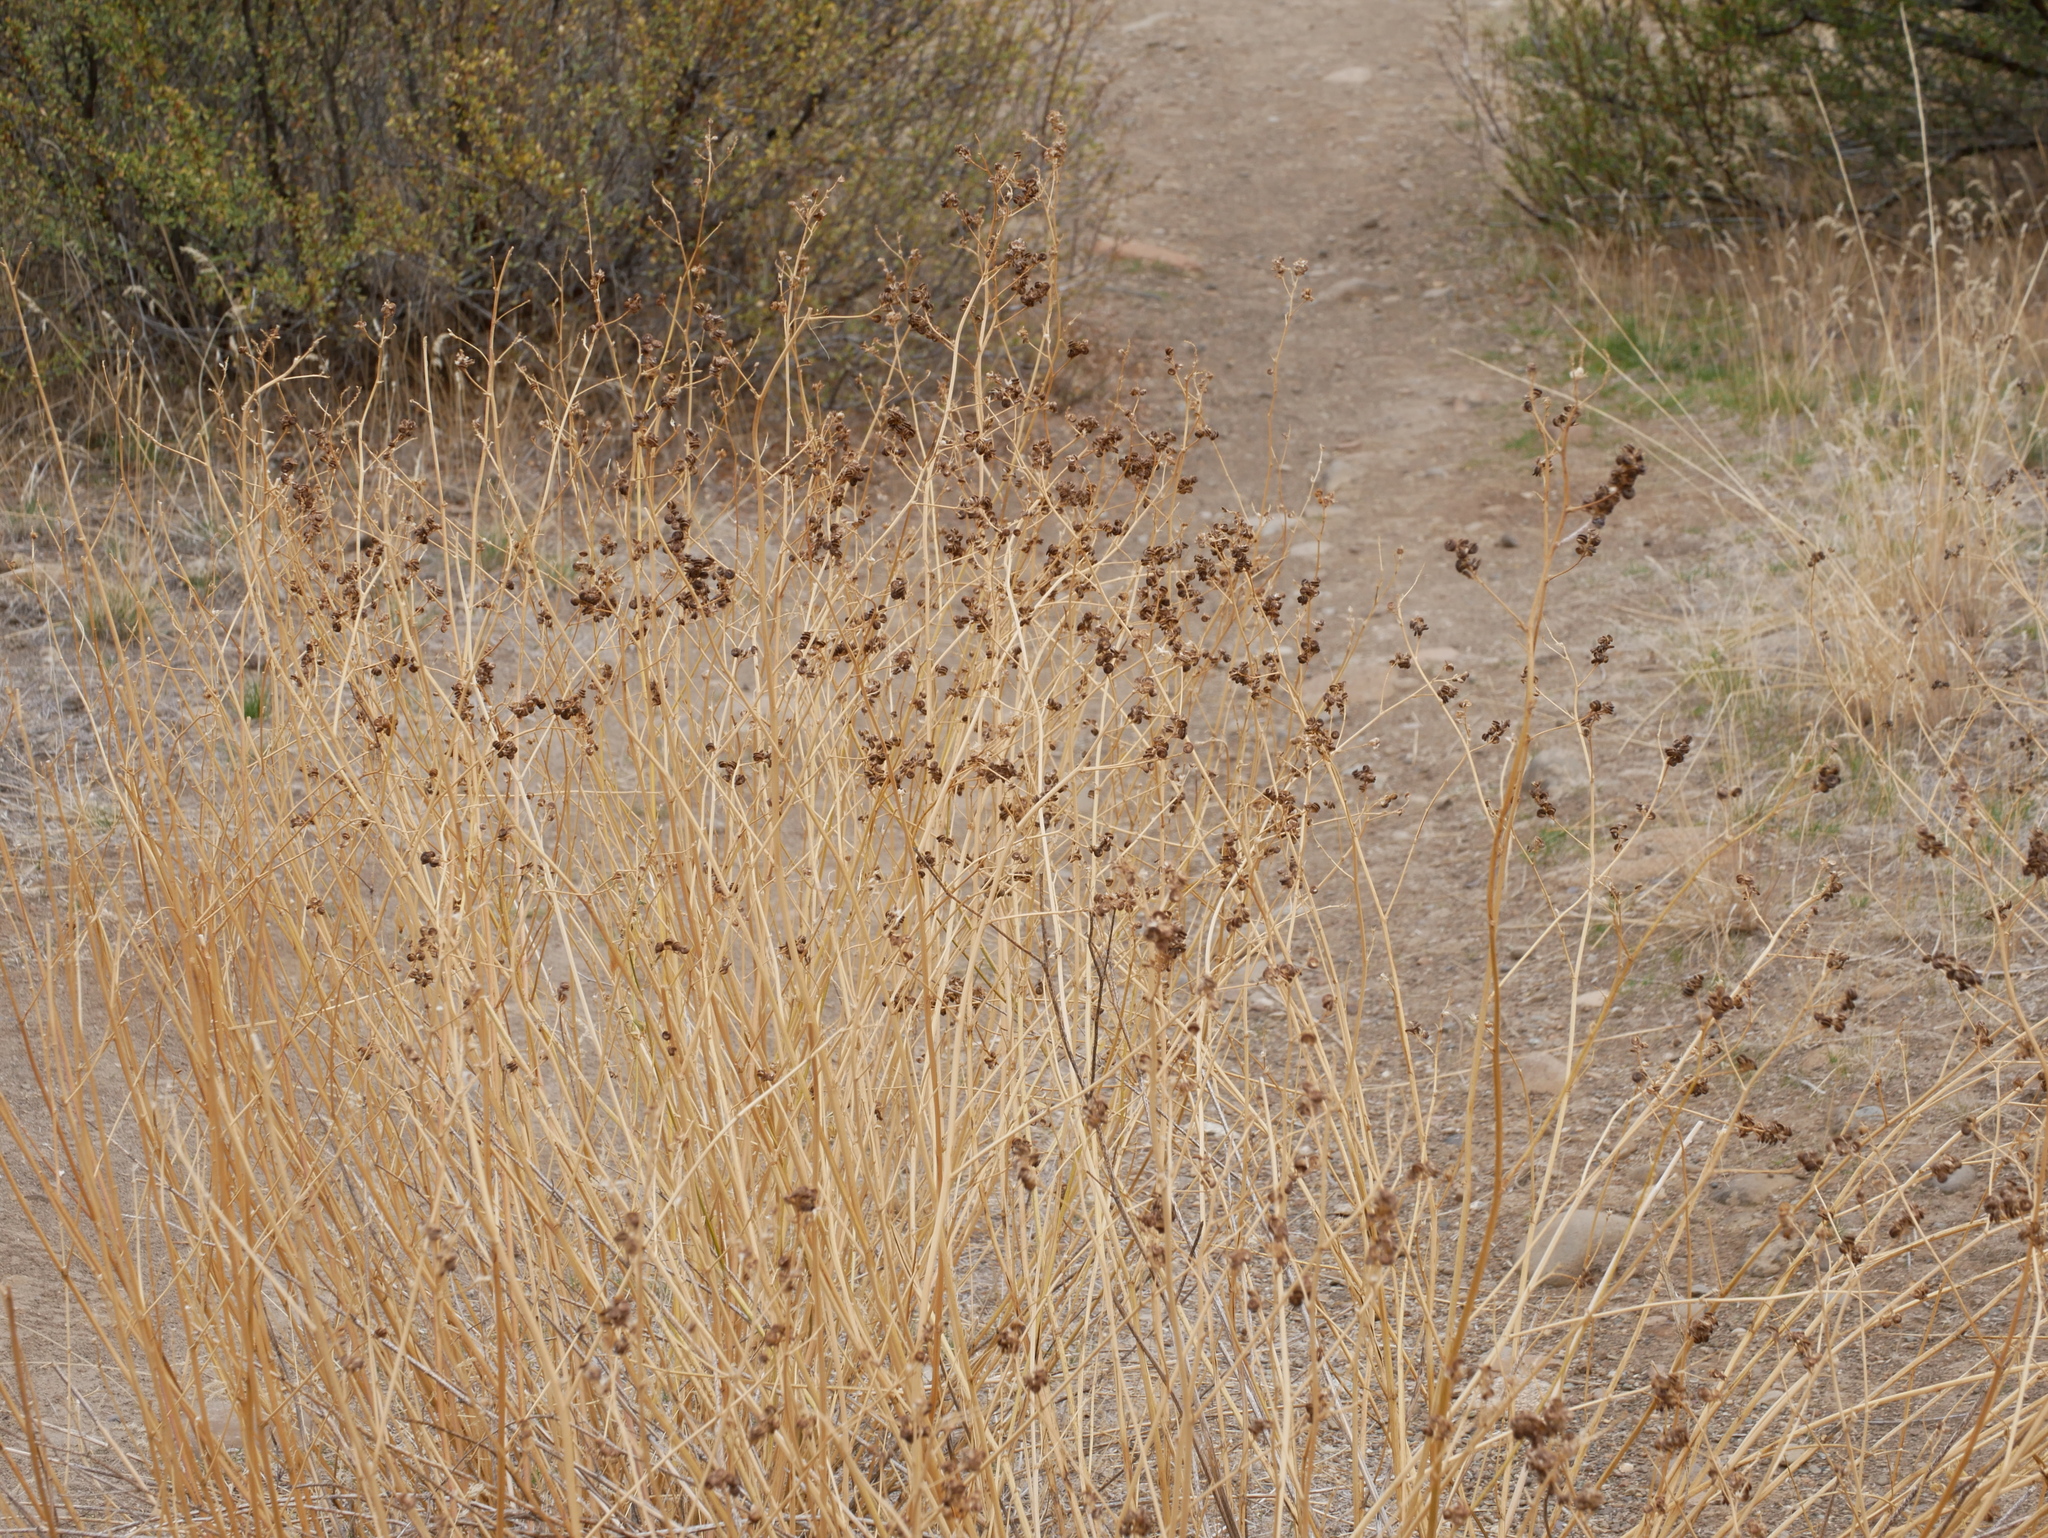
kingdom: Plantae
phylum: Tracheophyta
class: Magnoliopsida
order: Fabales
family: Fabaceae
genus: Medicago
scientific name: Medicago sativa
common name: Alfalfa
